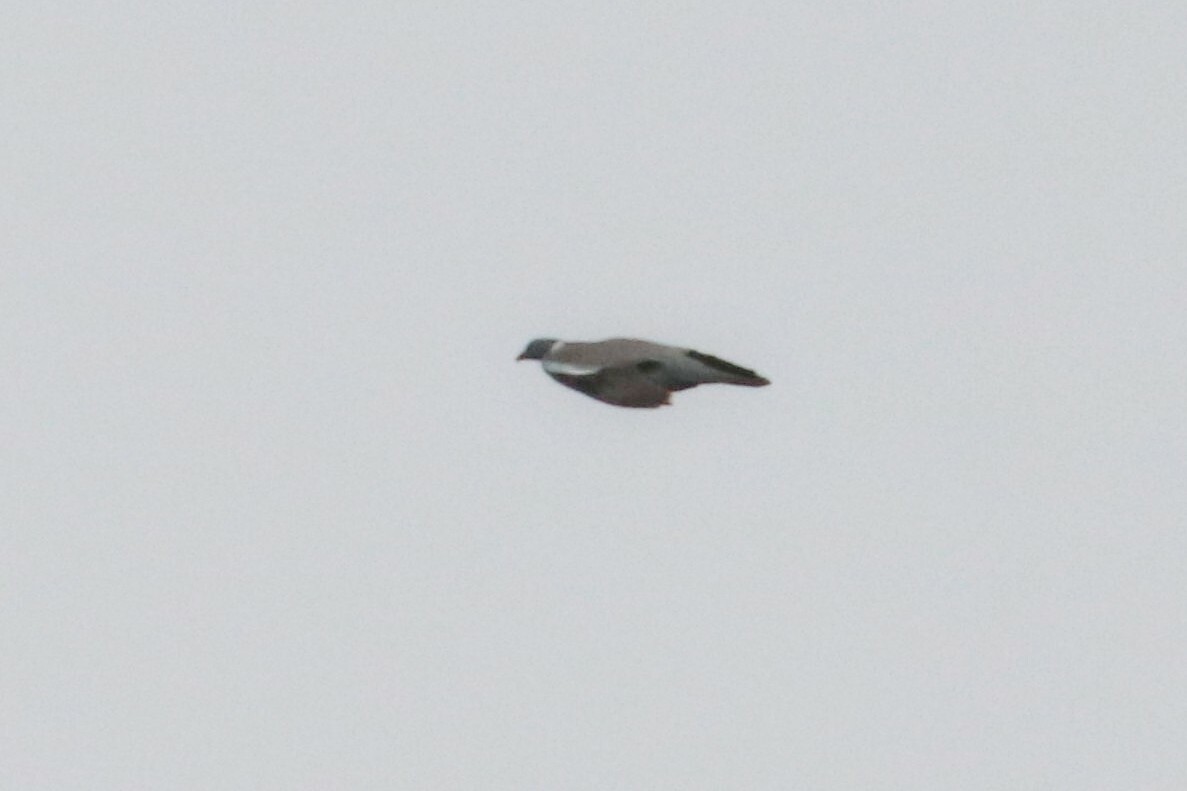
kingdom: Animalia
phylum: Chordata
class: Aves
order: Columbiformes
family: Columbidae
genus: Columba
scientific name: Columba palumbus
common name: Common wood pigeon
